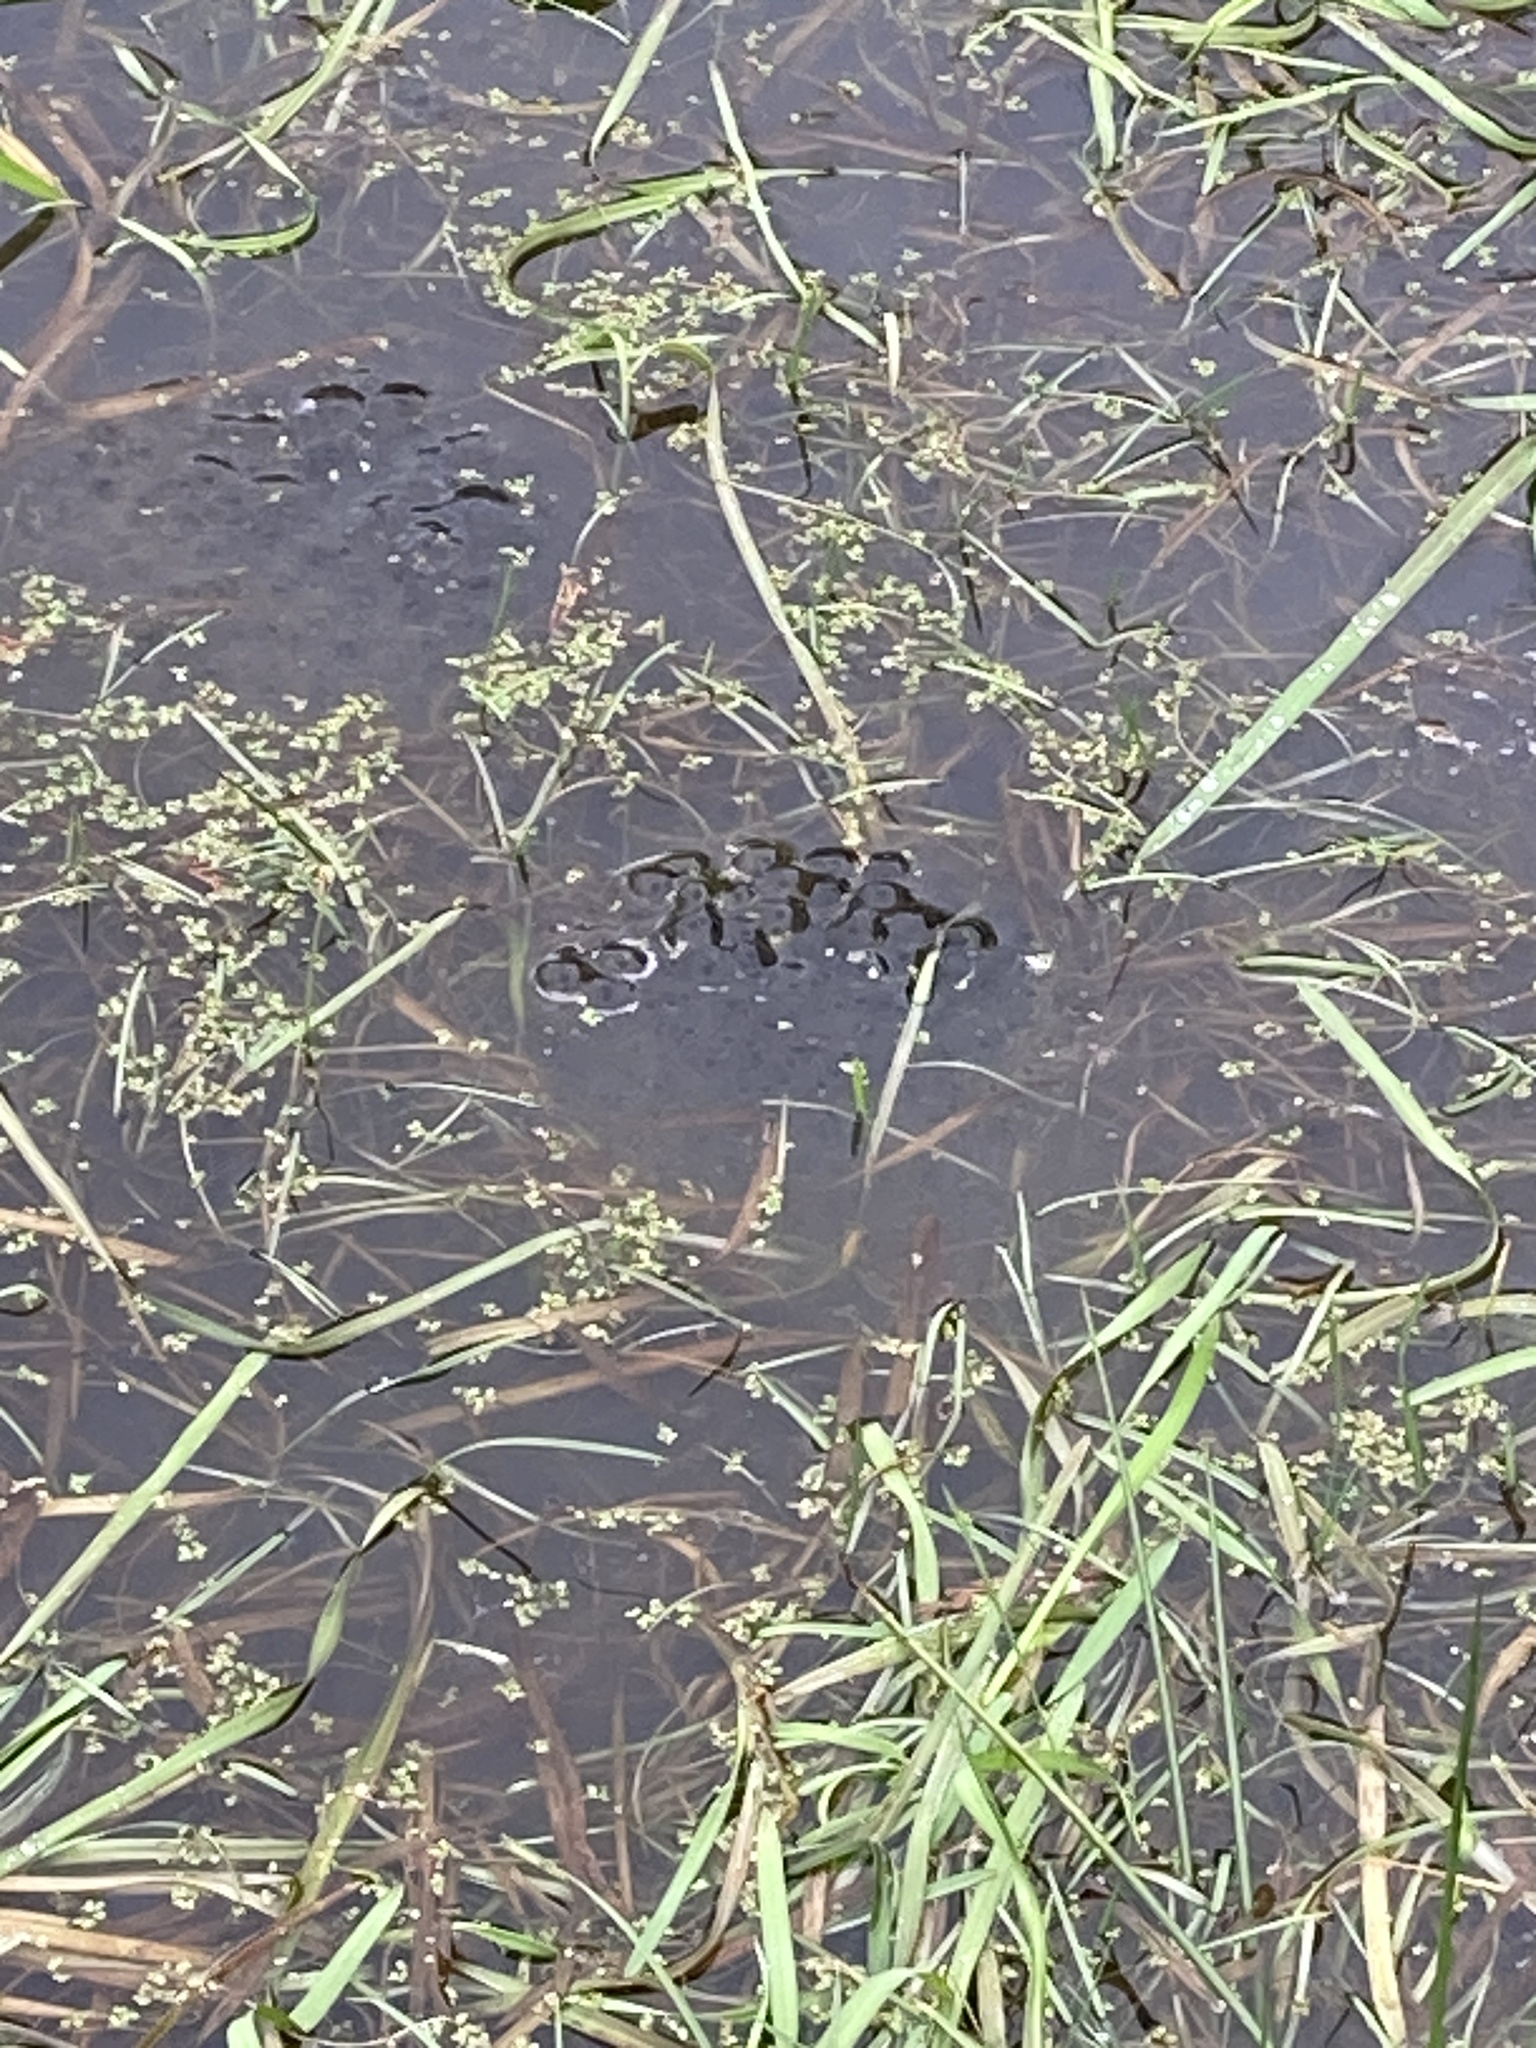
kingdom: Animalia
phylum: Chordata
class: Amphibia
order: Anura
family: Ranidae
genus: Rana
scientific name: Rana temporaria
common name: Common frog
